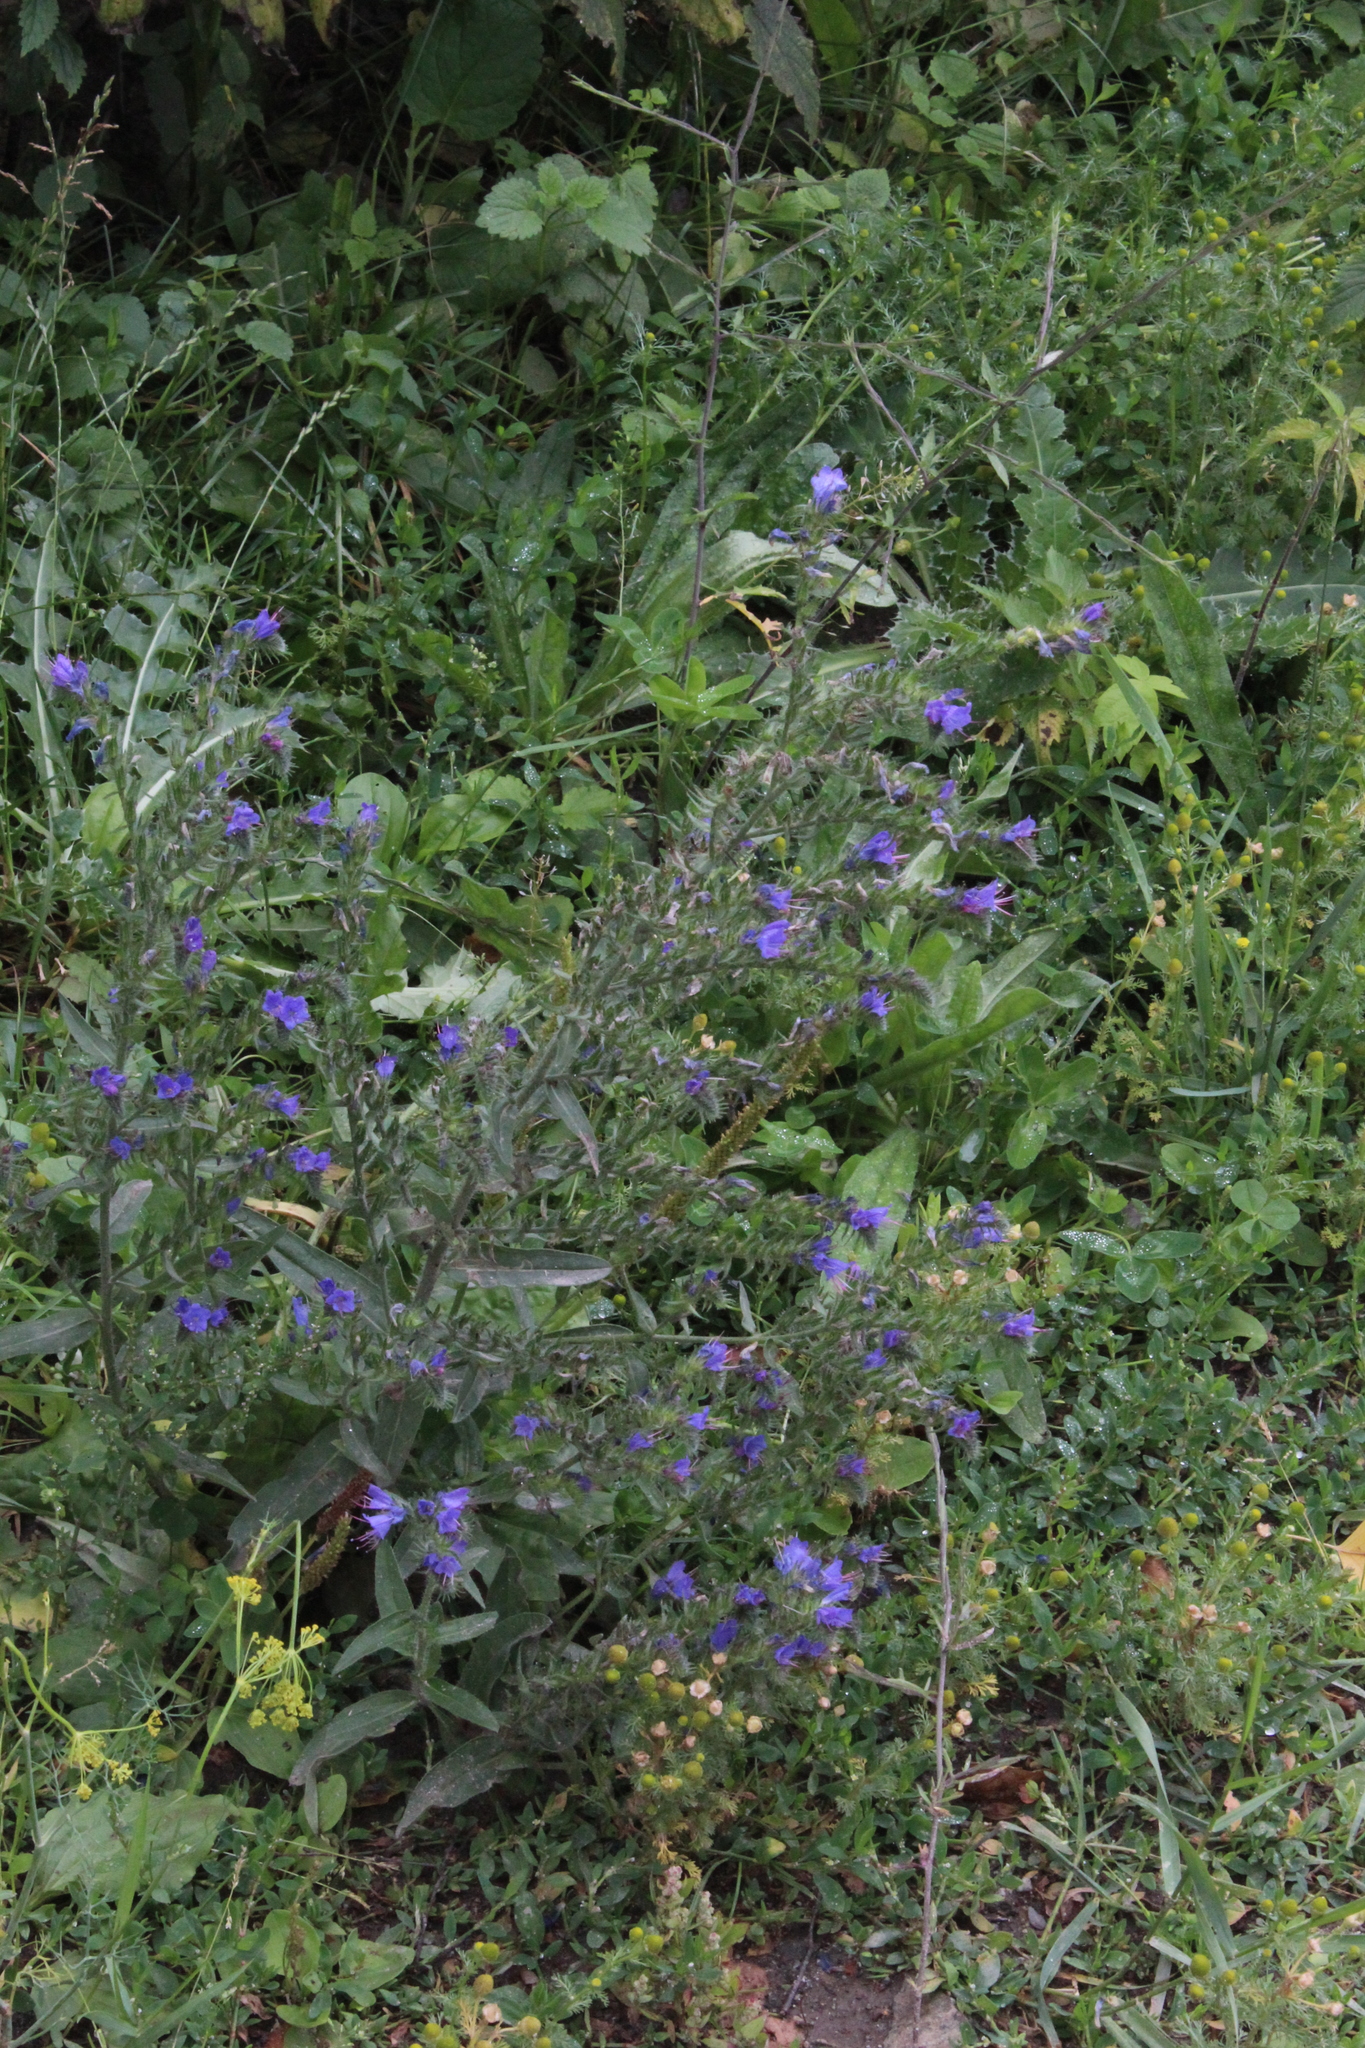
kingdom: Plantae
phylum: Tracheophyta
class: Magnoliopsida
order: Boraginales
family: Boraginaceae
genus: Echium
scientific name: Echium vulgare
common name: Common viper's bugloss
